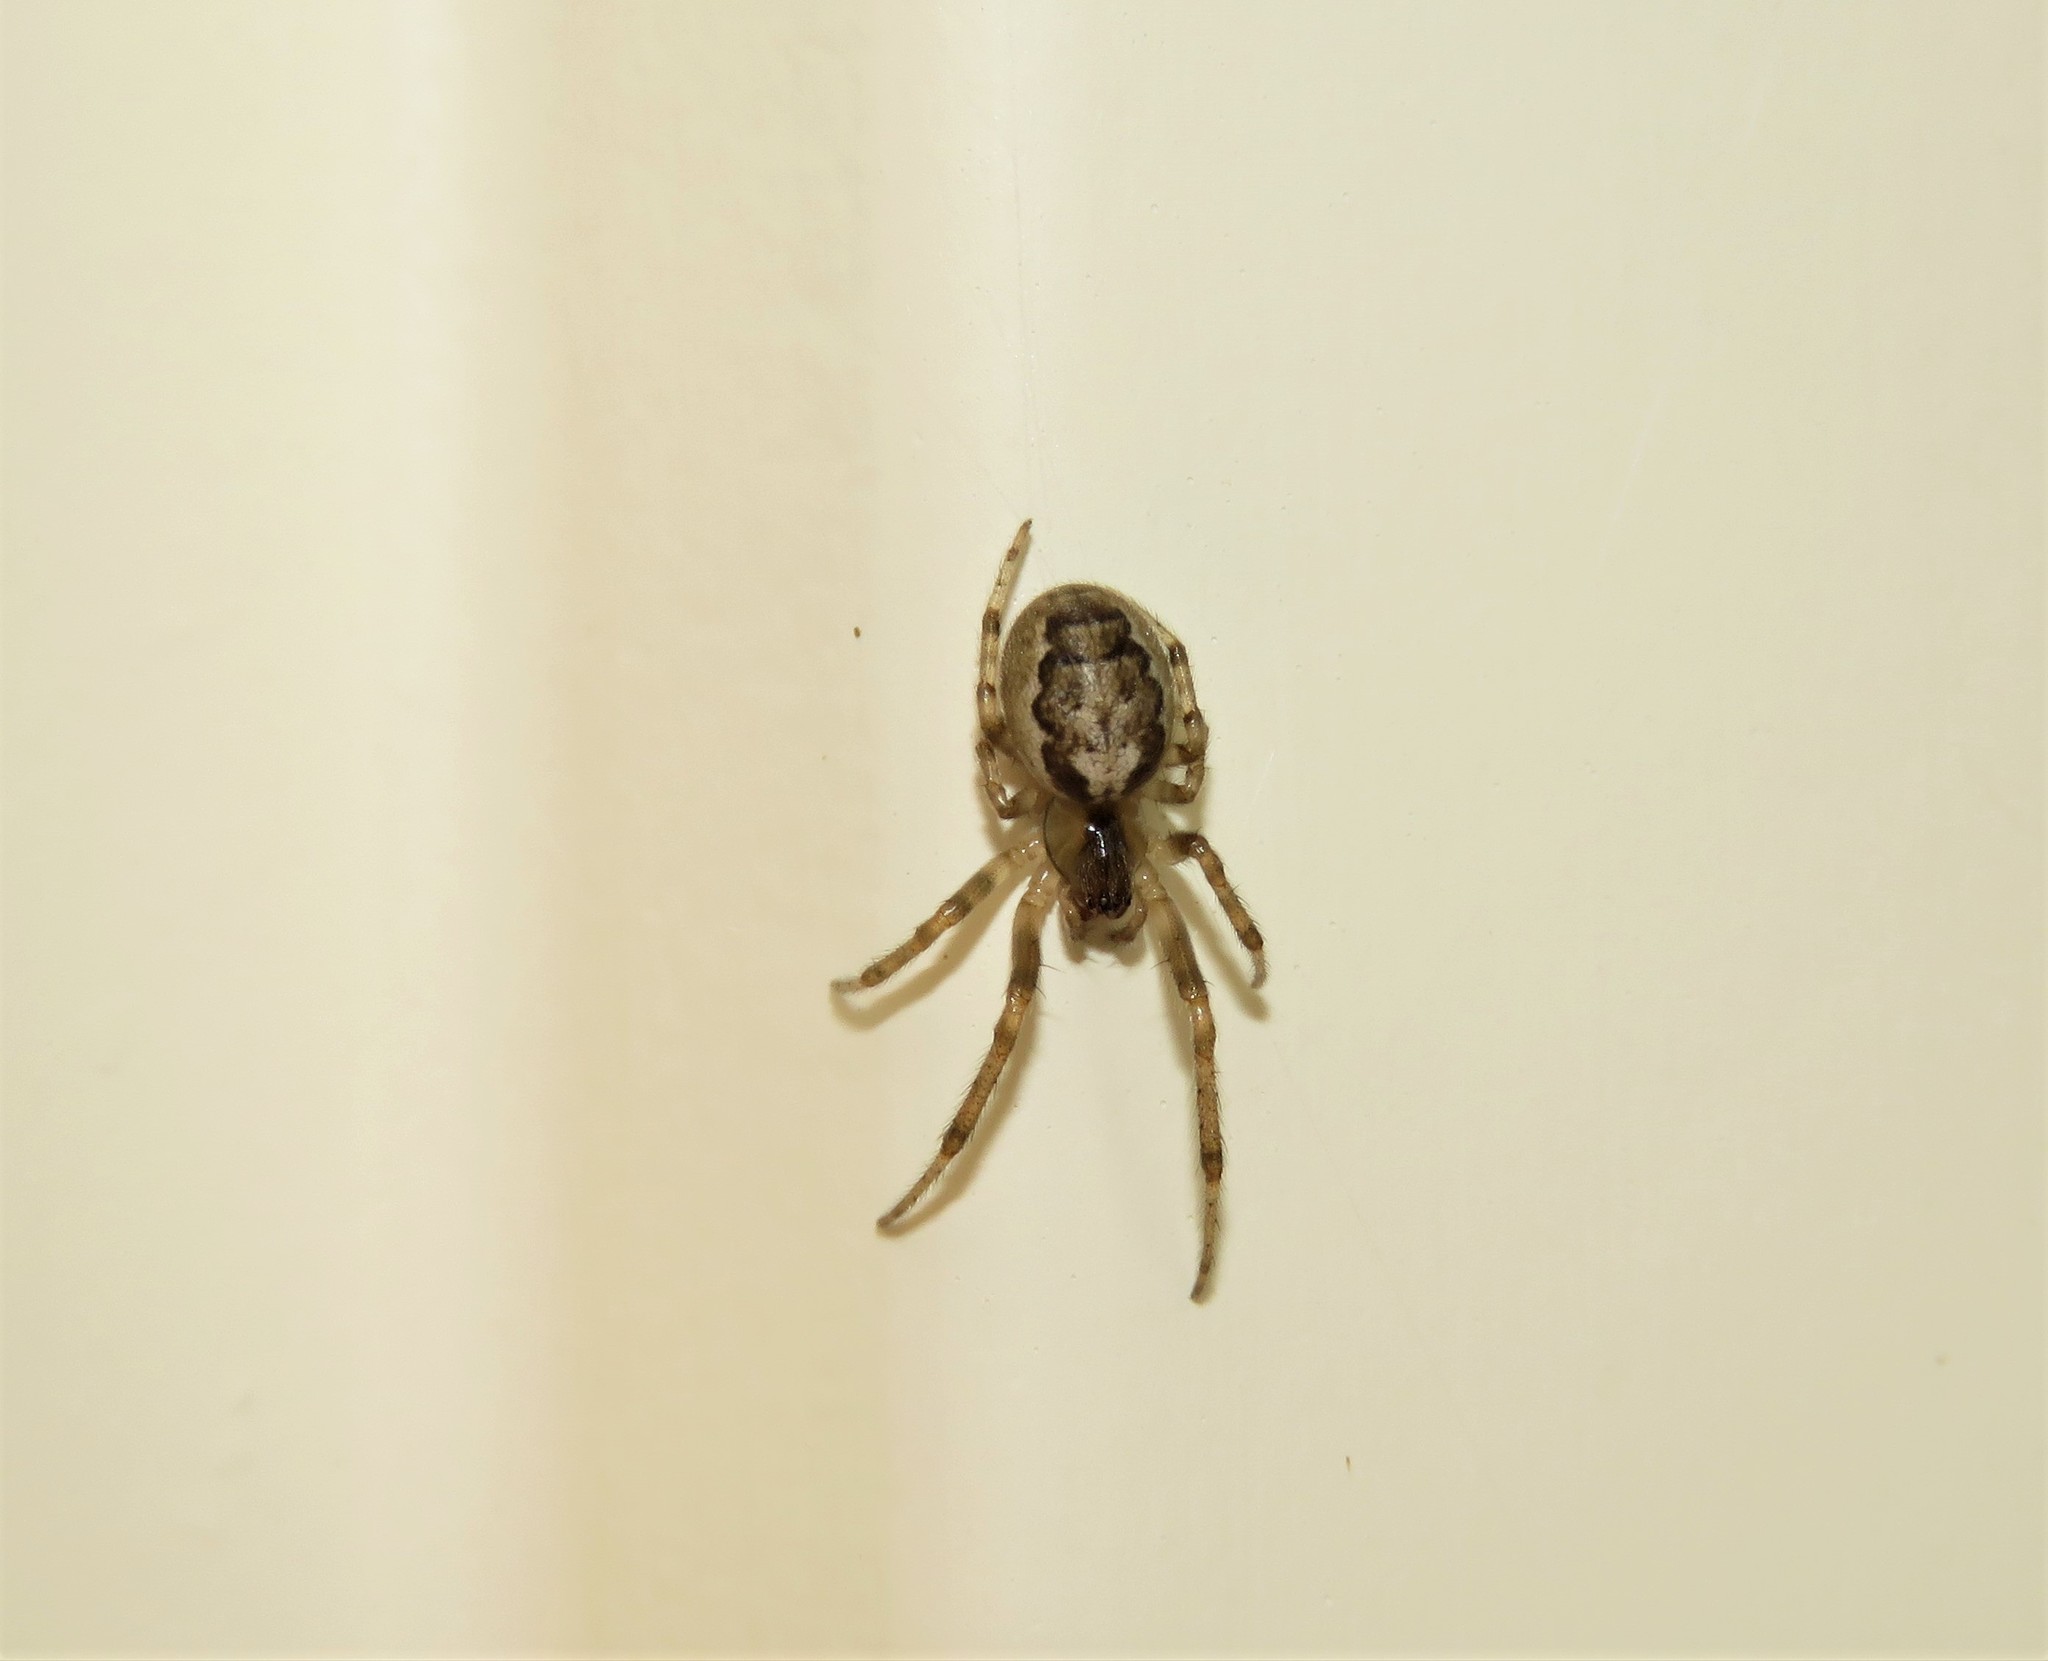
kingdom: Animalia
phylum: Arthropoda
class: Arachnida
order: Araneae
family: Araneidae
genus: Zygiella
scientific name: Zygiella x-notata
